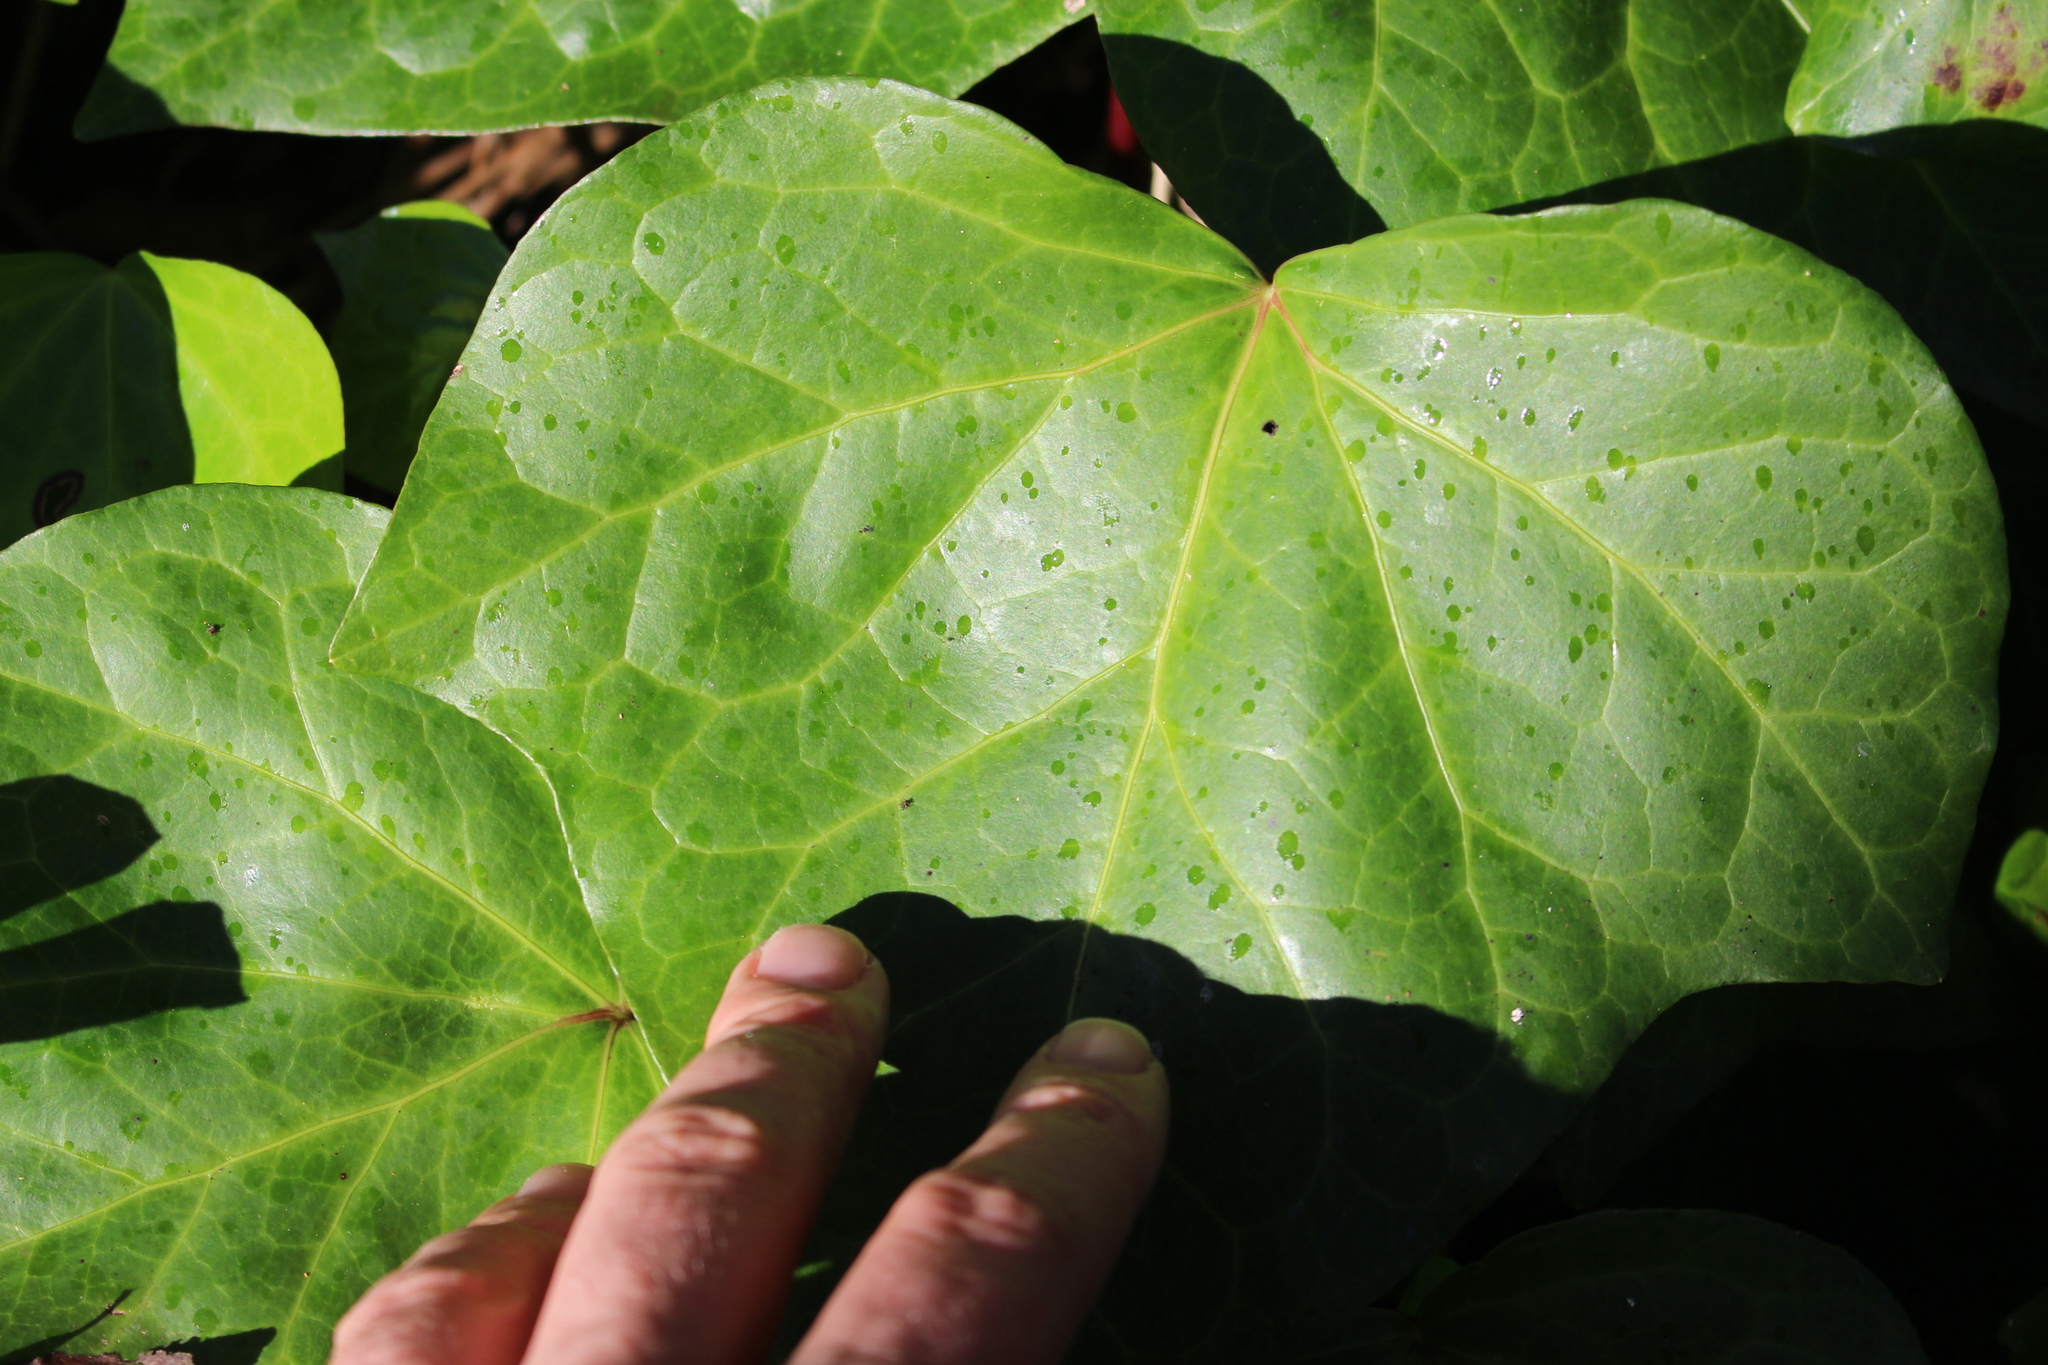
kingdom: Plantae
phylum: Tracheophyta
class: Magnoliopsida
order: Apiales
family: Araliaceae
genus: Hedera
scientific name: Hedera canariensis
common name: Madeira ivy
